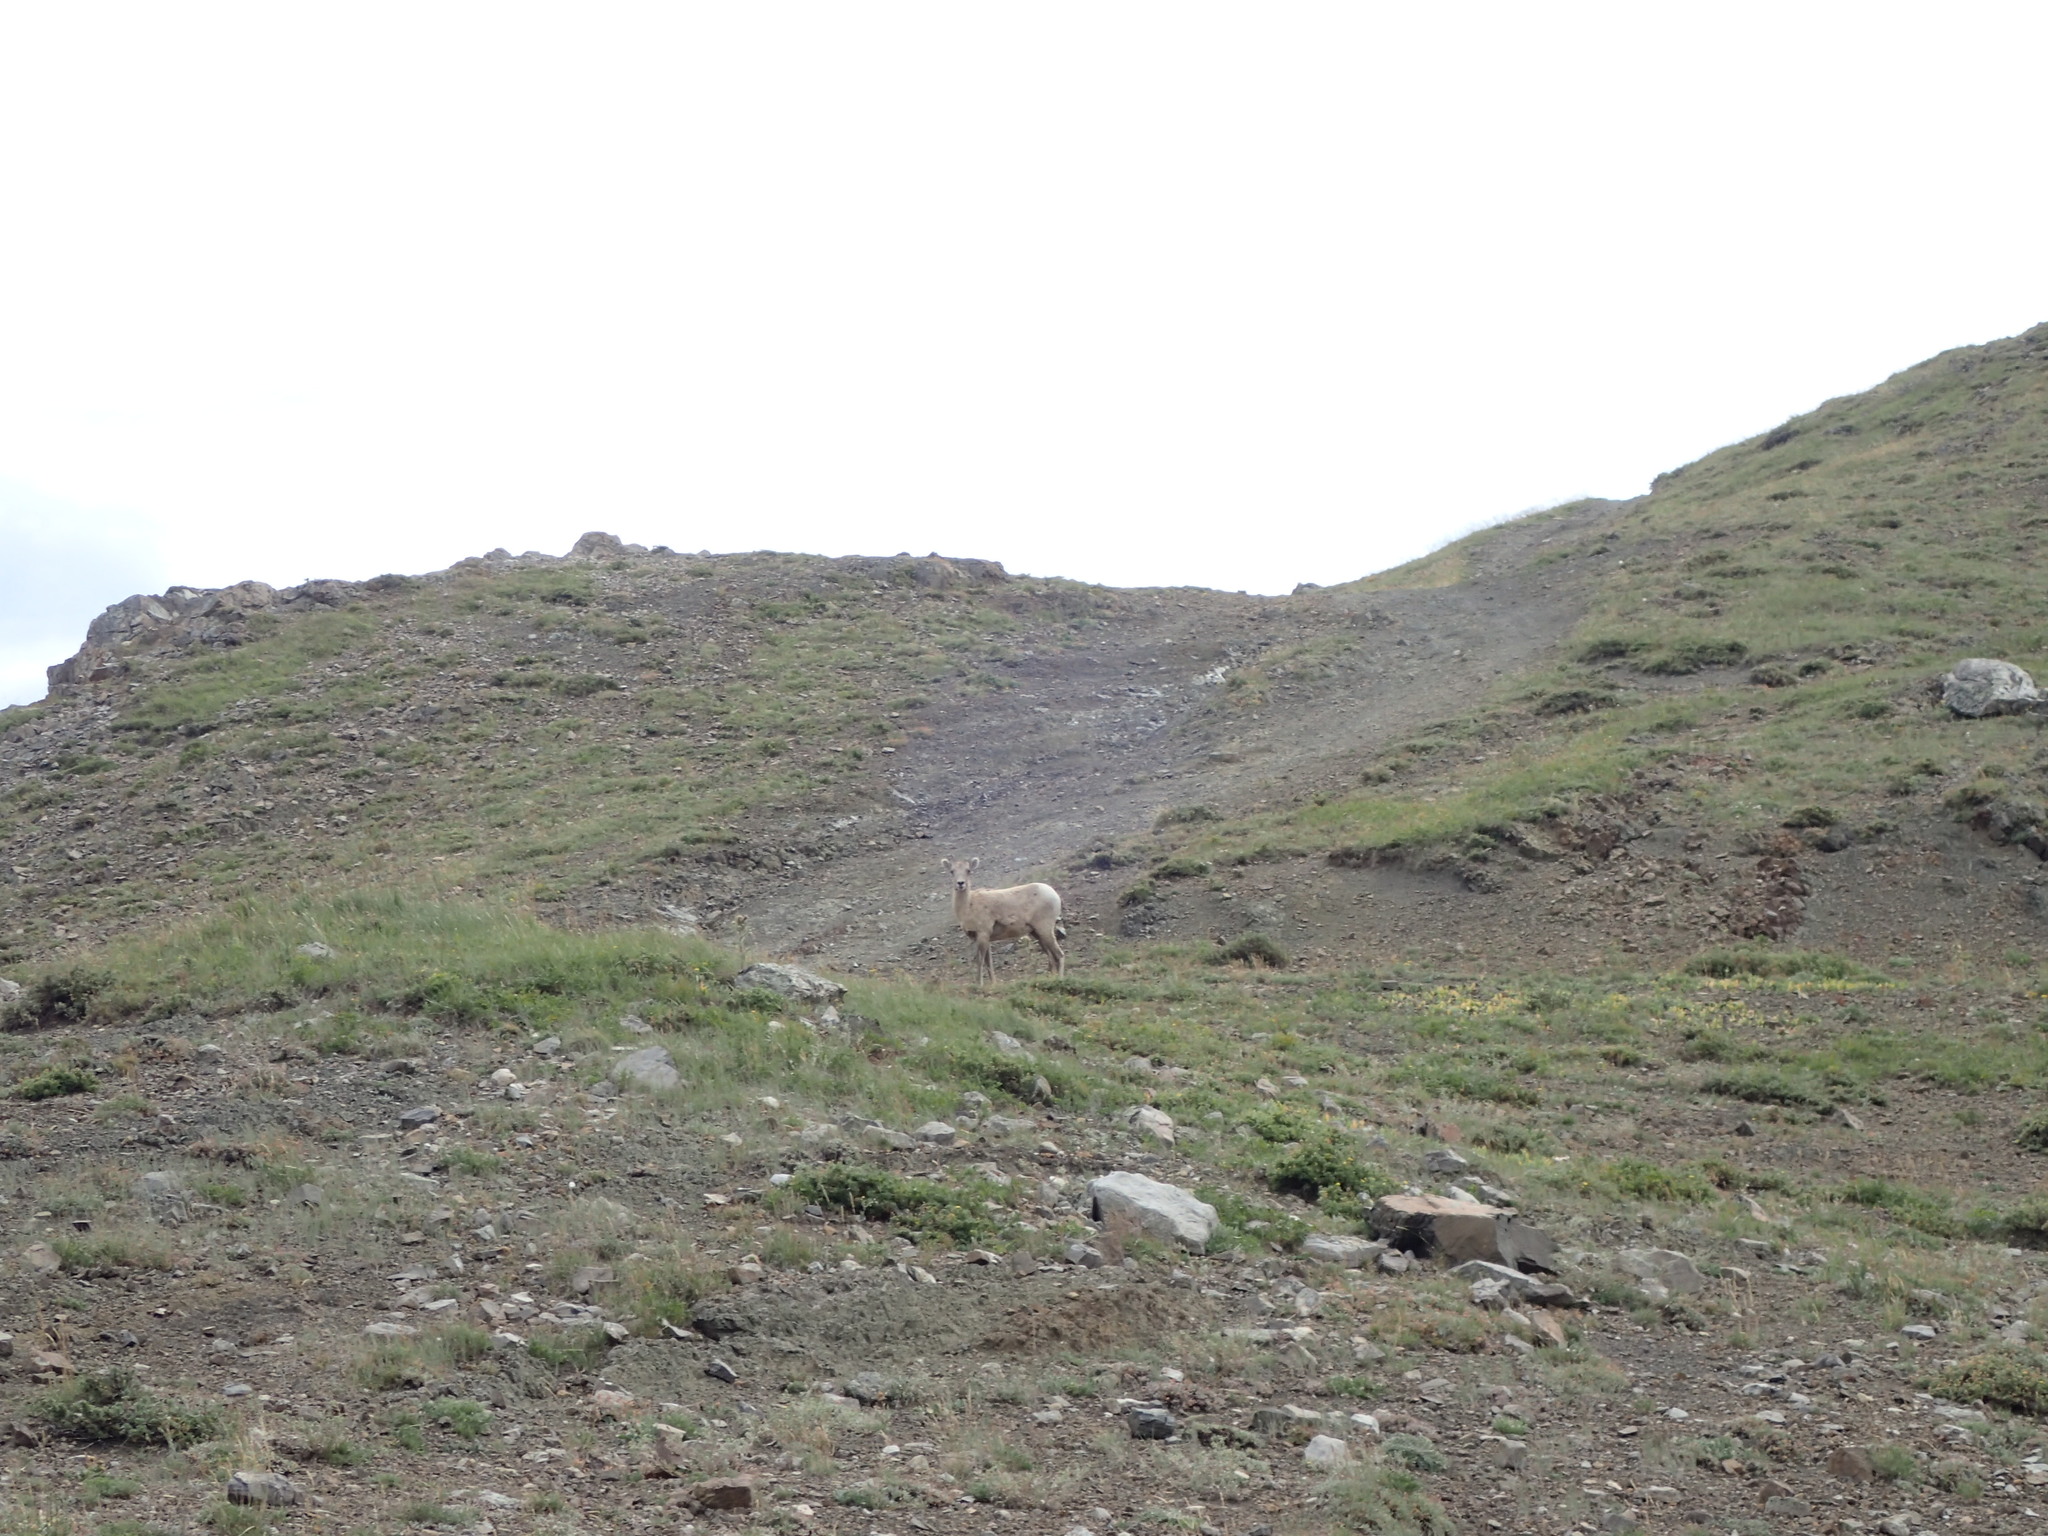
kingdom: Animalia
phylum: Chordata
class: Mammalia
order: Artiodactyla
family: Bovidae
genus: Ovis
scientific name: Ovis canadensis
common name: Bighorn sheep
